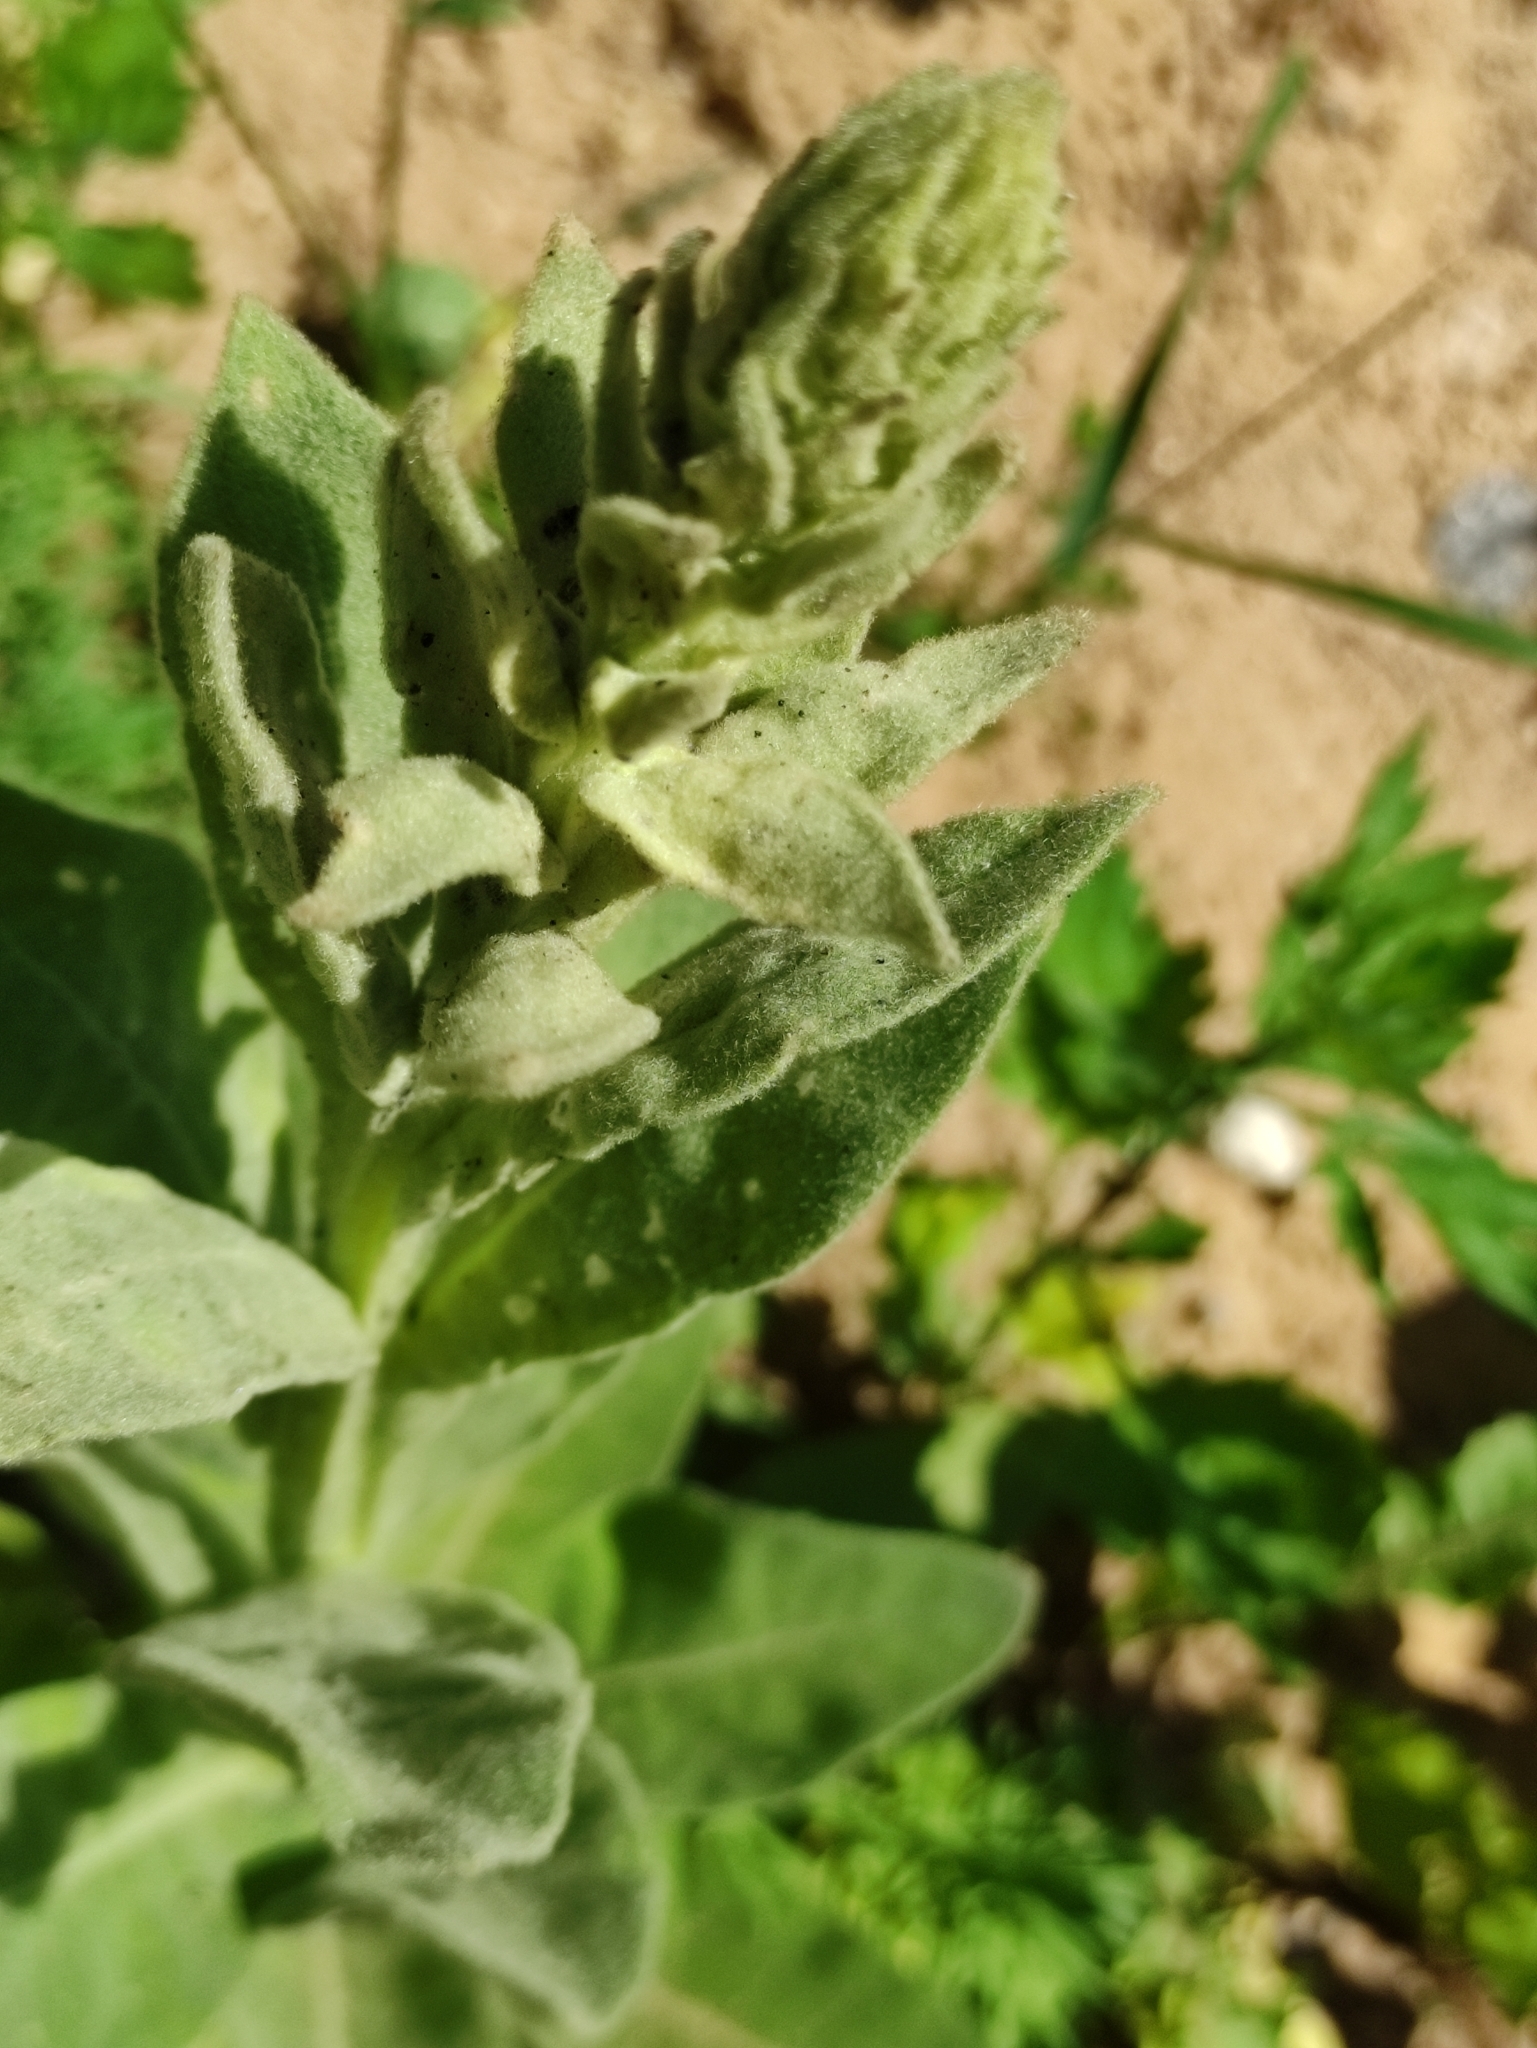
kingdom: Plantae
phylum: Tracheophyta
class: Magnoliopsida
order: Lamiales
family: Scrophulariaceae
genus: Verbascum
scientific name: Verbascum thapsus
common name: Common mullein
